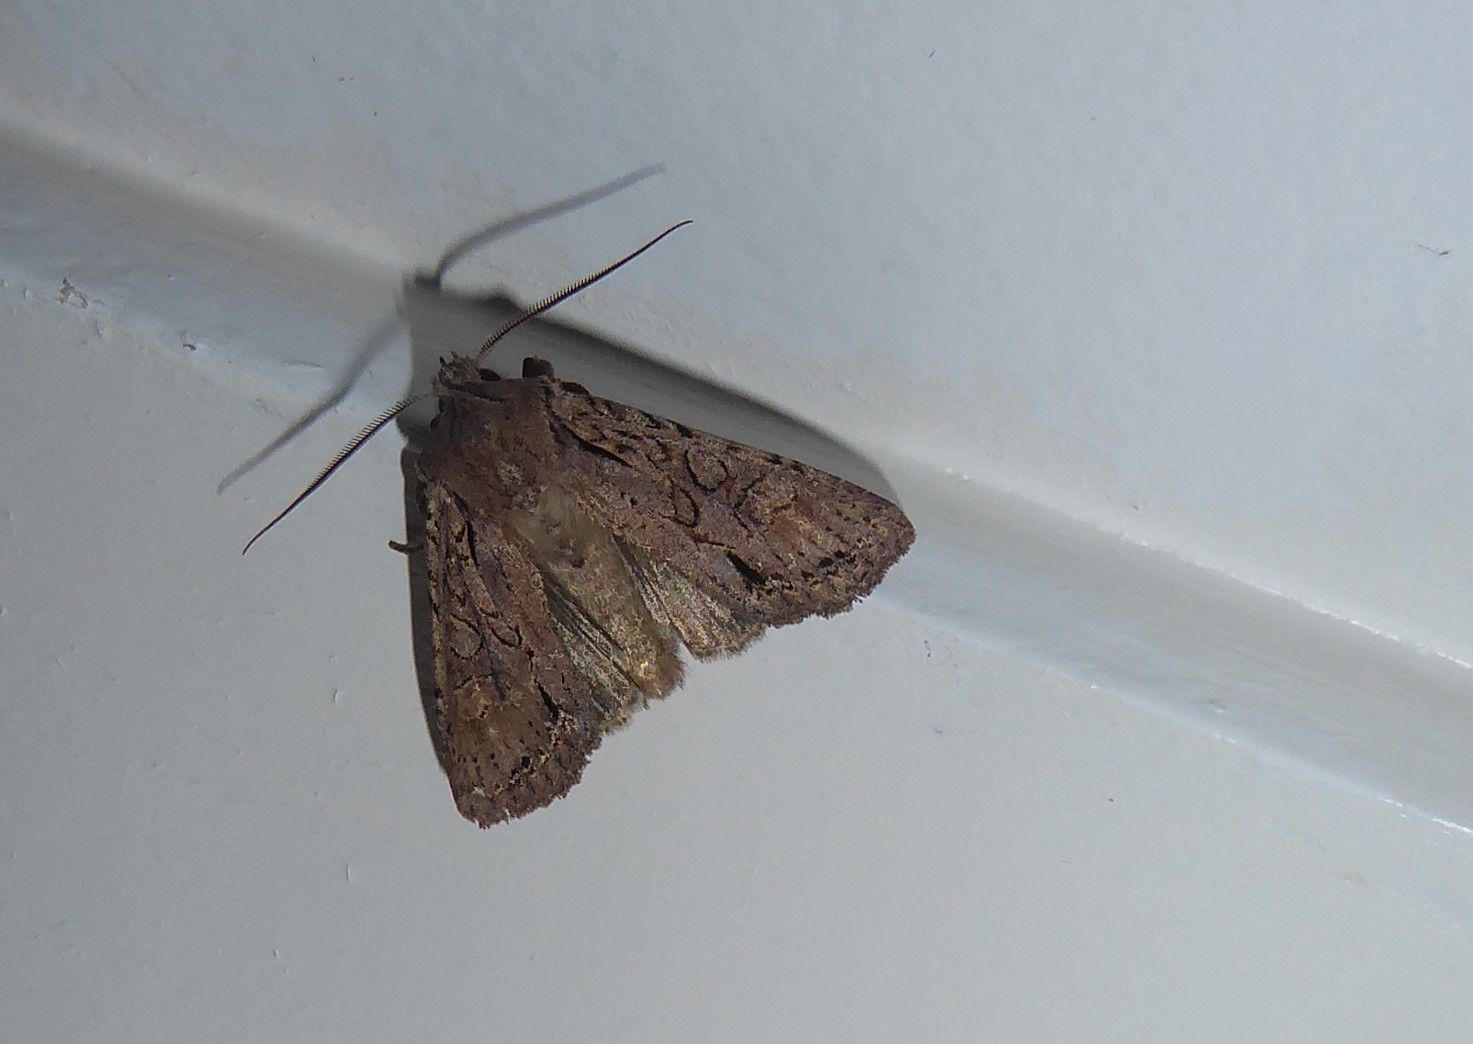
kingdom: Animalia
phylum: Arthropoda
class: Insecta
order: Lepidoptera
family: Noctuidae
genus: Ichneutica
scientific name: Ichneutica
